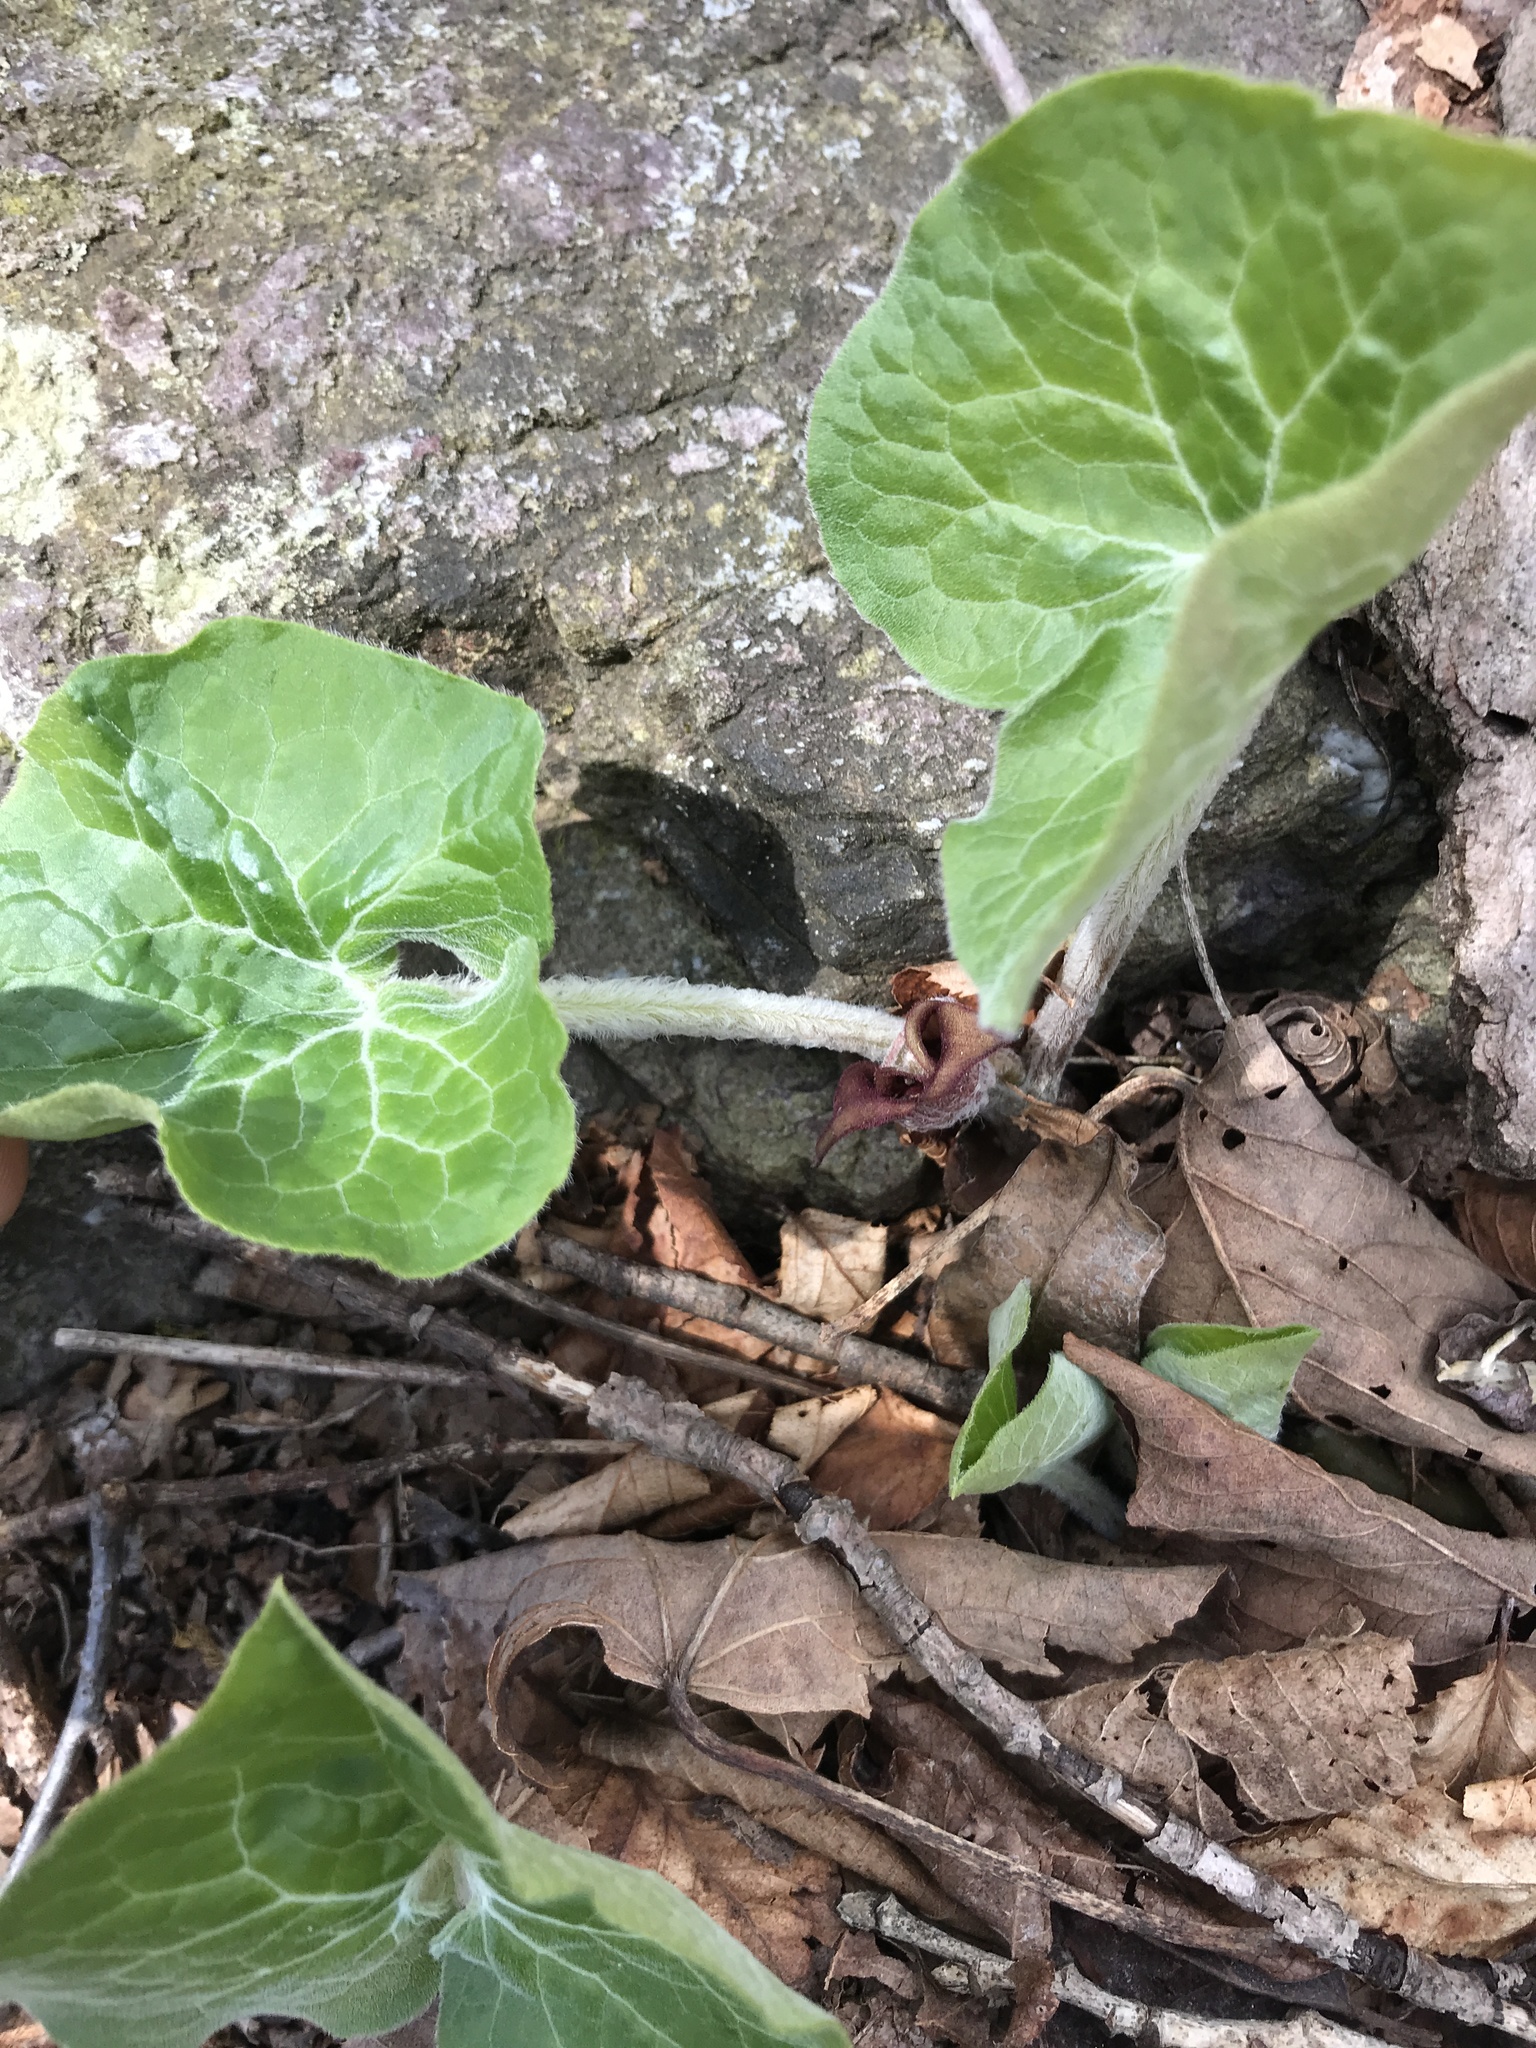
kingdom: Plantae
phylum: Tracheophyta
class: Magnoliopsida
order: Piperales
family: Aristolochiaceae
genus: Asarum
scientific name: Asarum canadense
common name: Wild ginger
